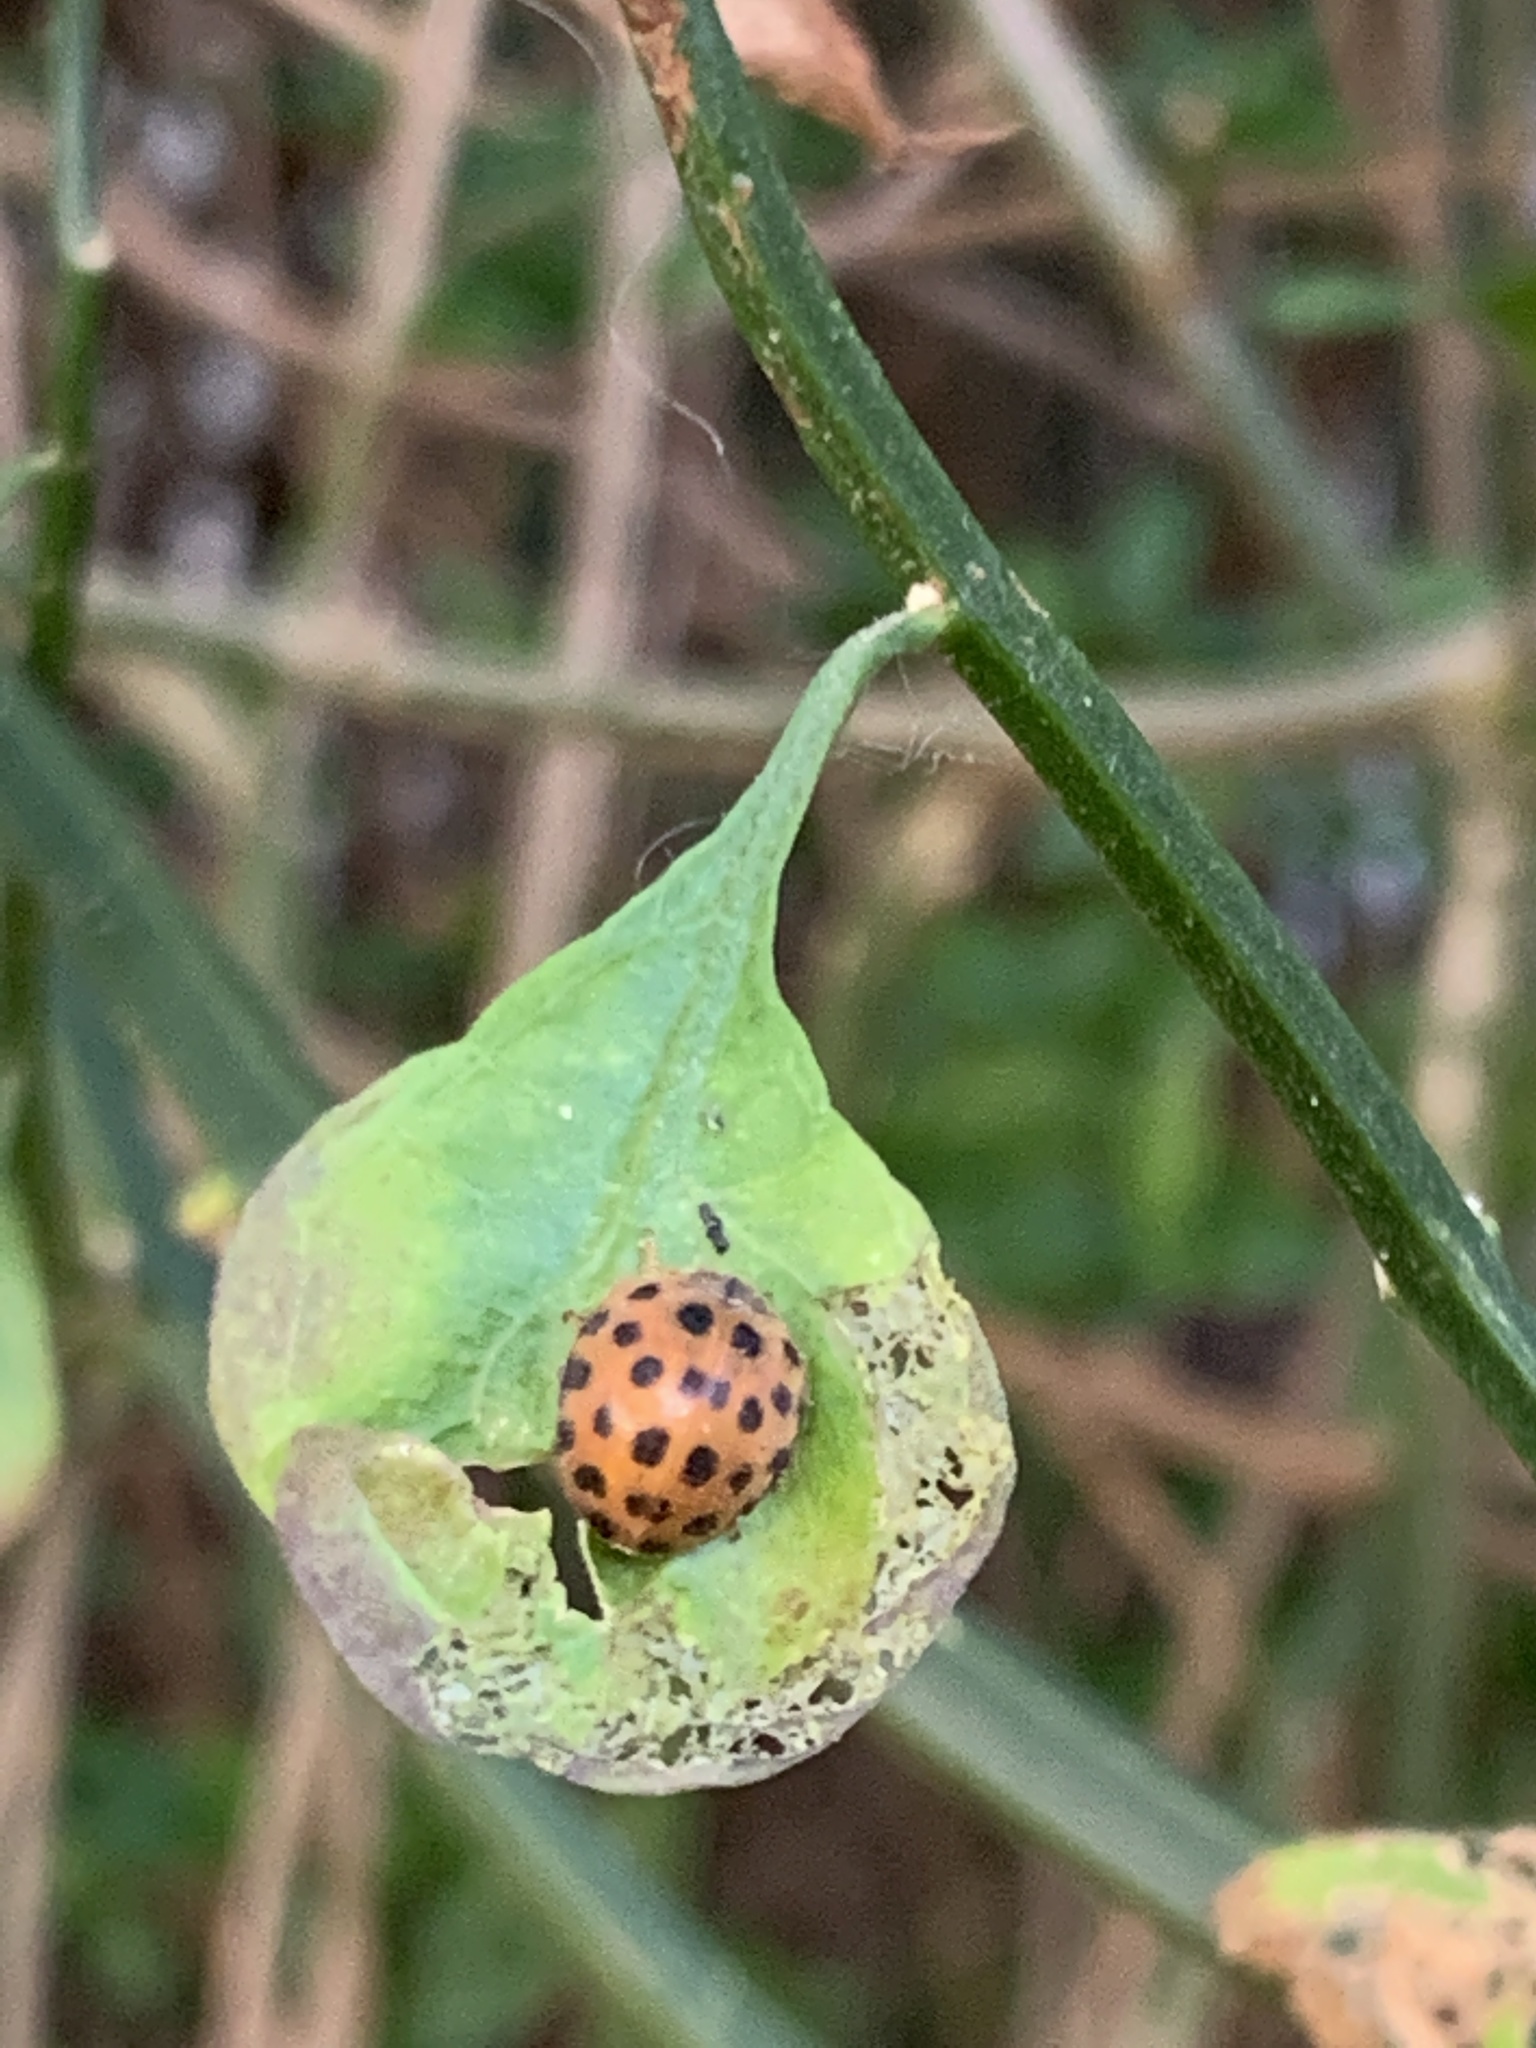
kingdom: Animalia
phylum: Arthropoda
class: Insecta
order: Coleoptera
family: Coccinellidae
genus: Henosepilachna
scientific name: Henosepilachna vigintioctopunctata
